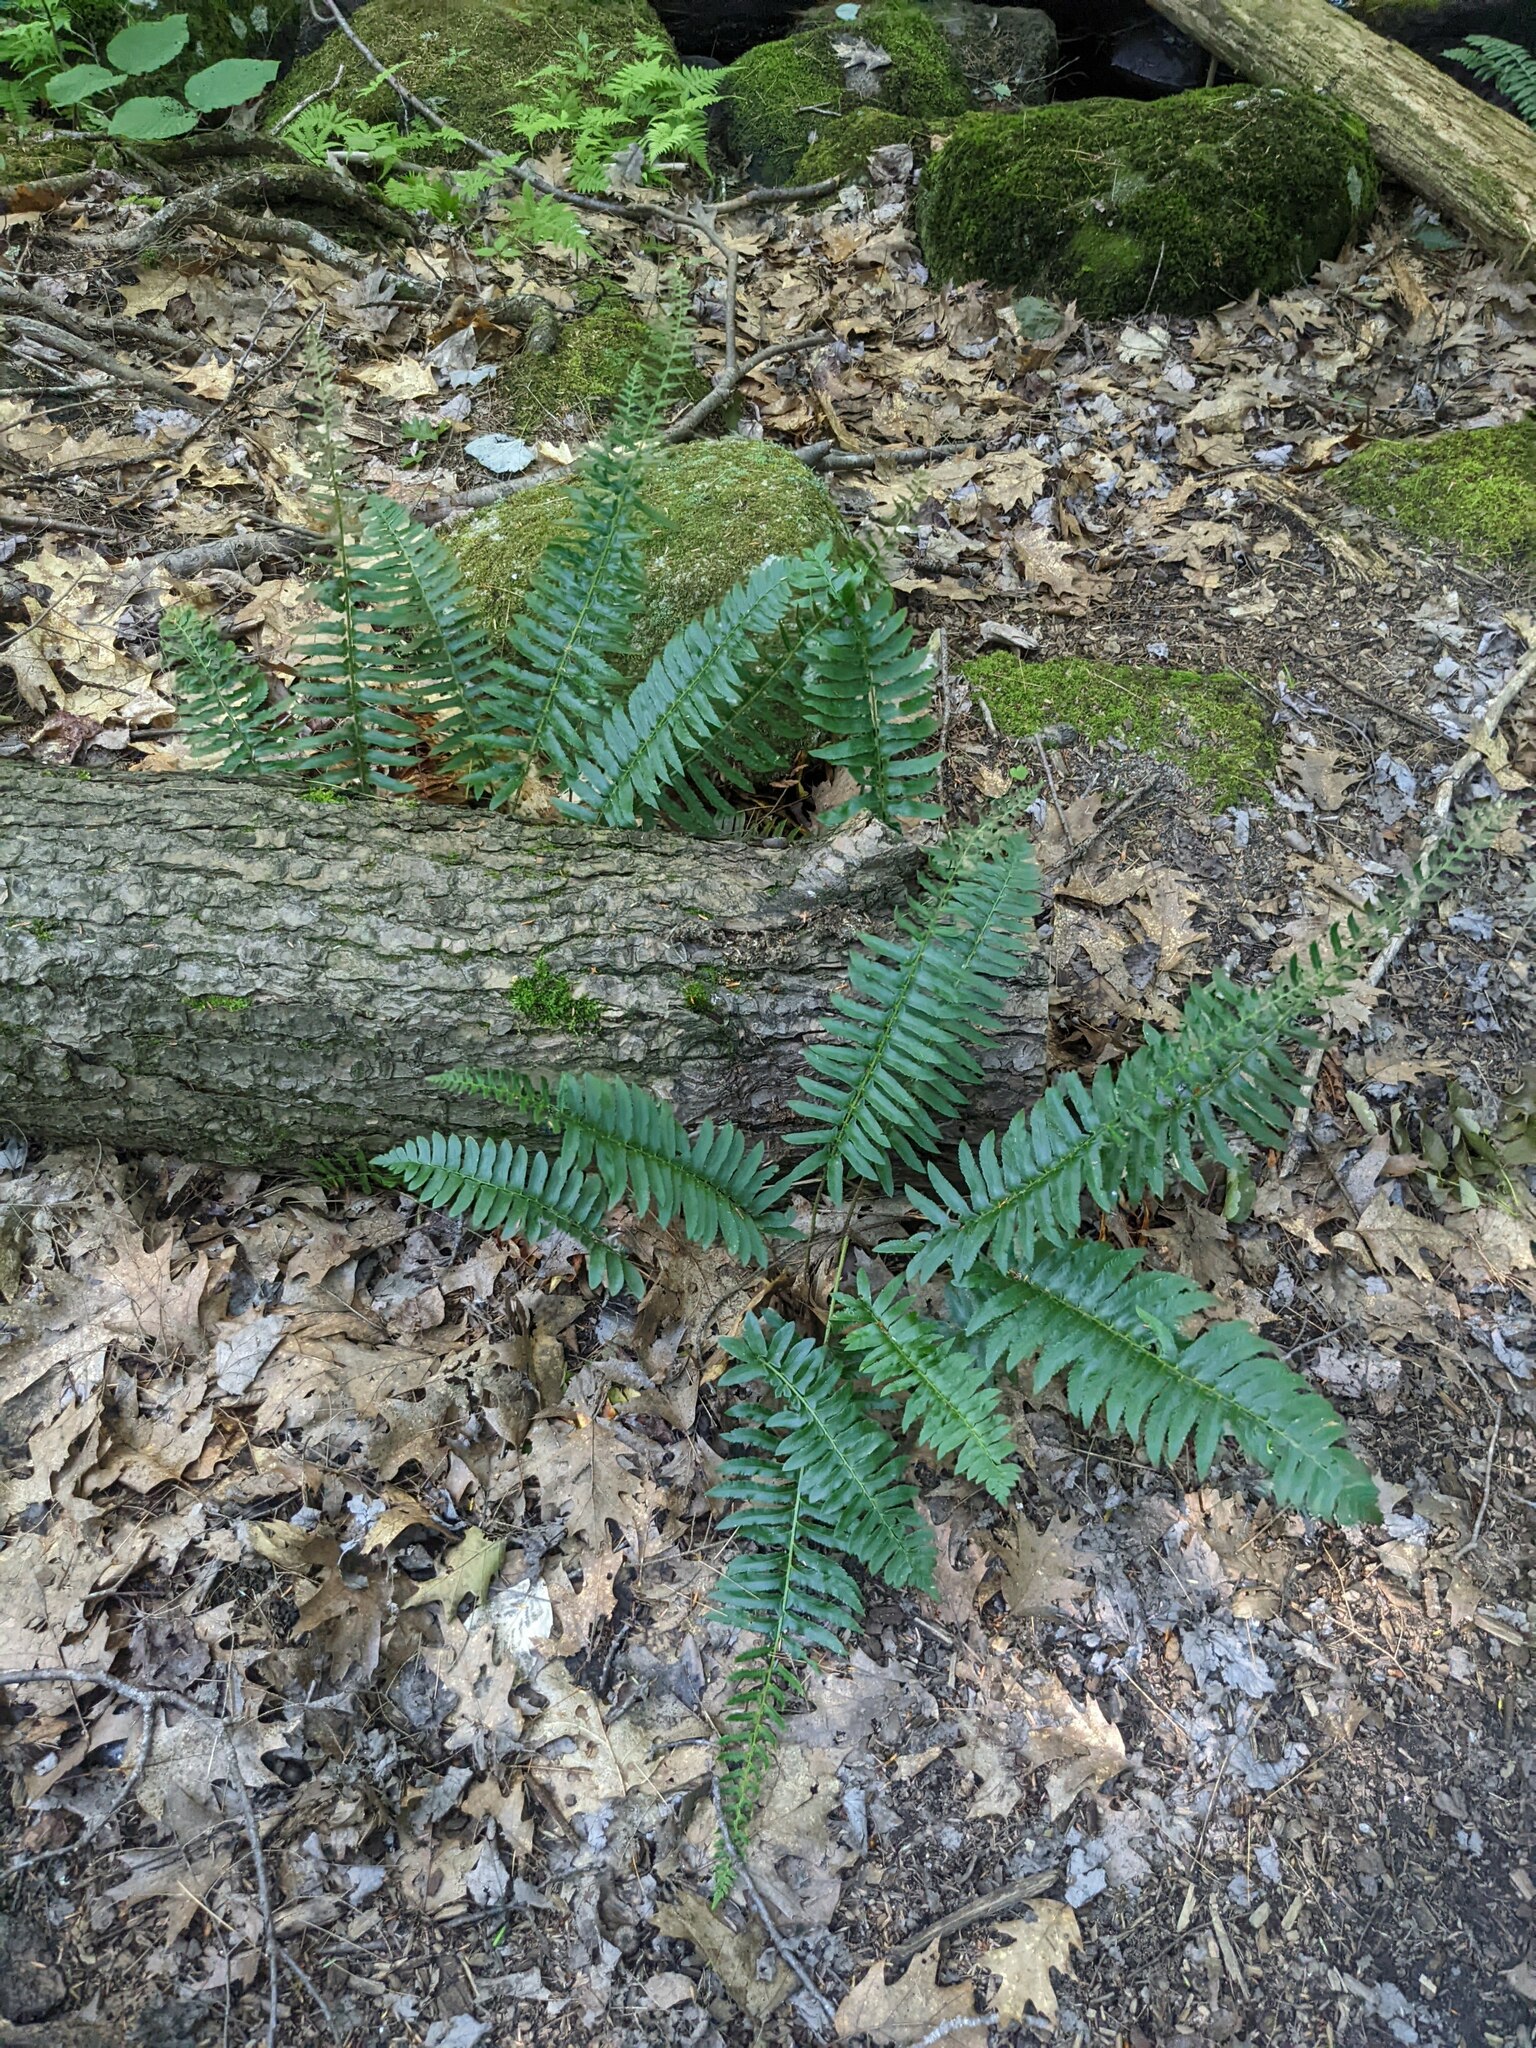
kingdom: Plantae
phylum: Tracheophyta
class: Polypodiopsida
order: Polypodiales
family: Dryopteridaceae
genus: Polystichum
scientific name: Polystichum acrostichoides
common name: Christmas fern
